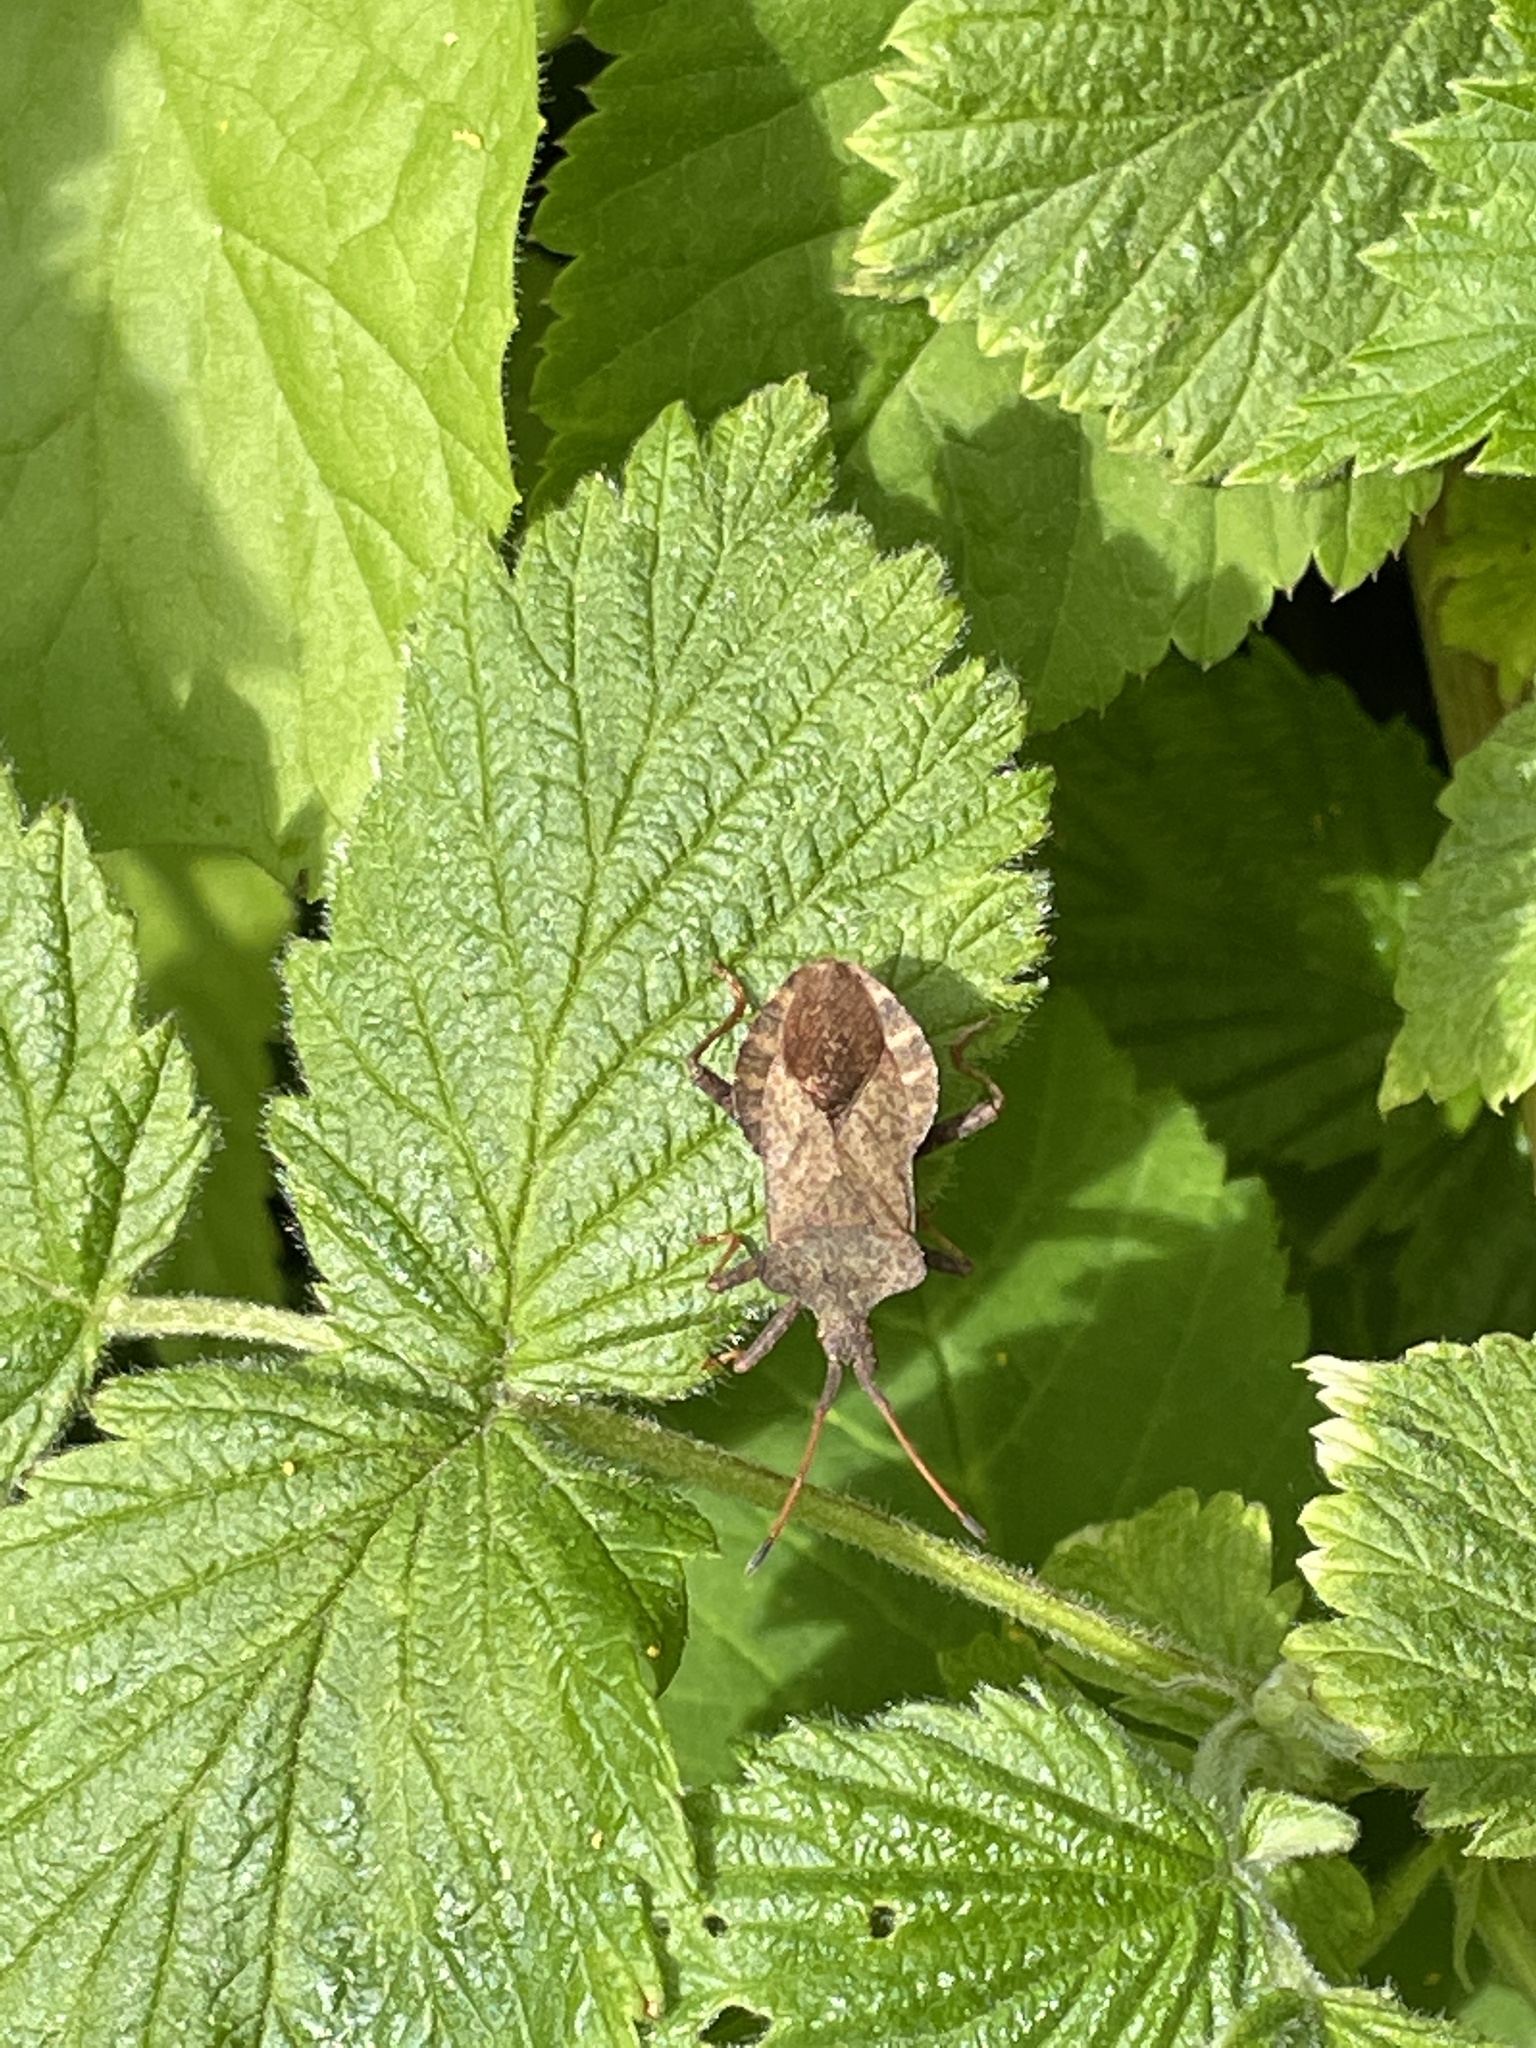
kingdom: Animalia
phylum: Arthropoda
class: Insecta
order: Hemiptera
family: Coreidae
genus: Coreus
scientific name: Coreus marginatus
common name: Dock bug
